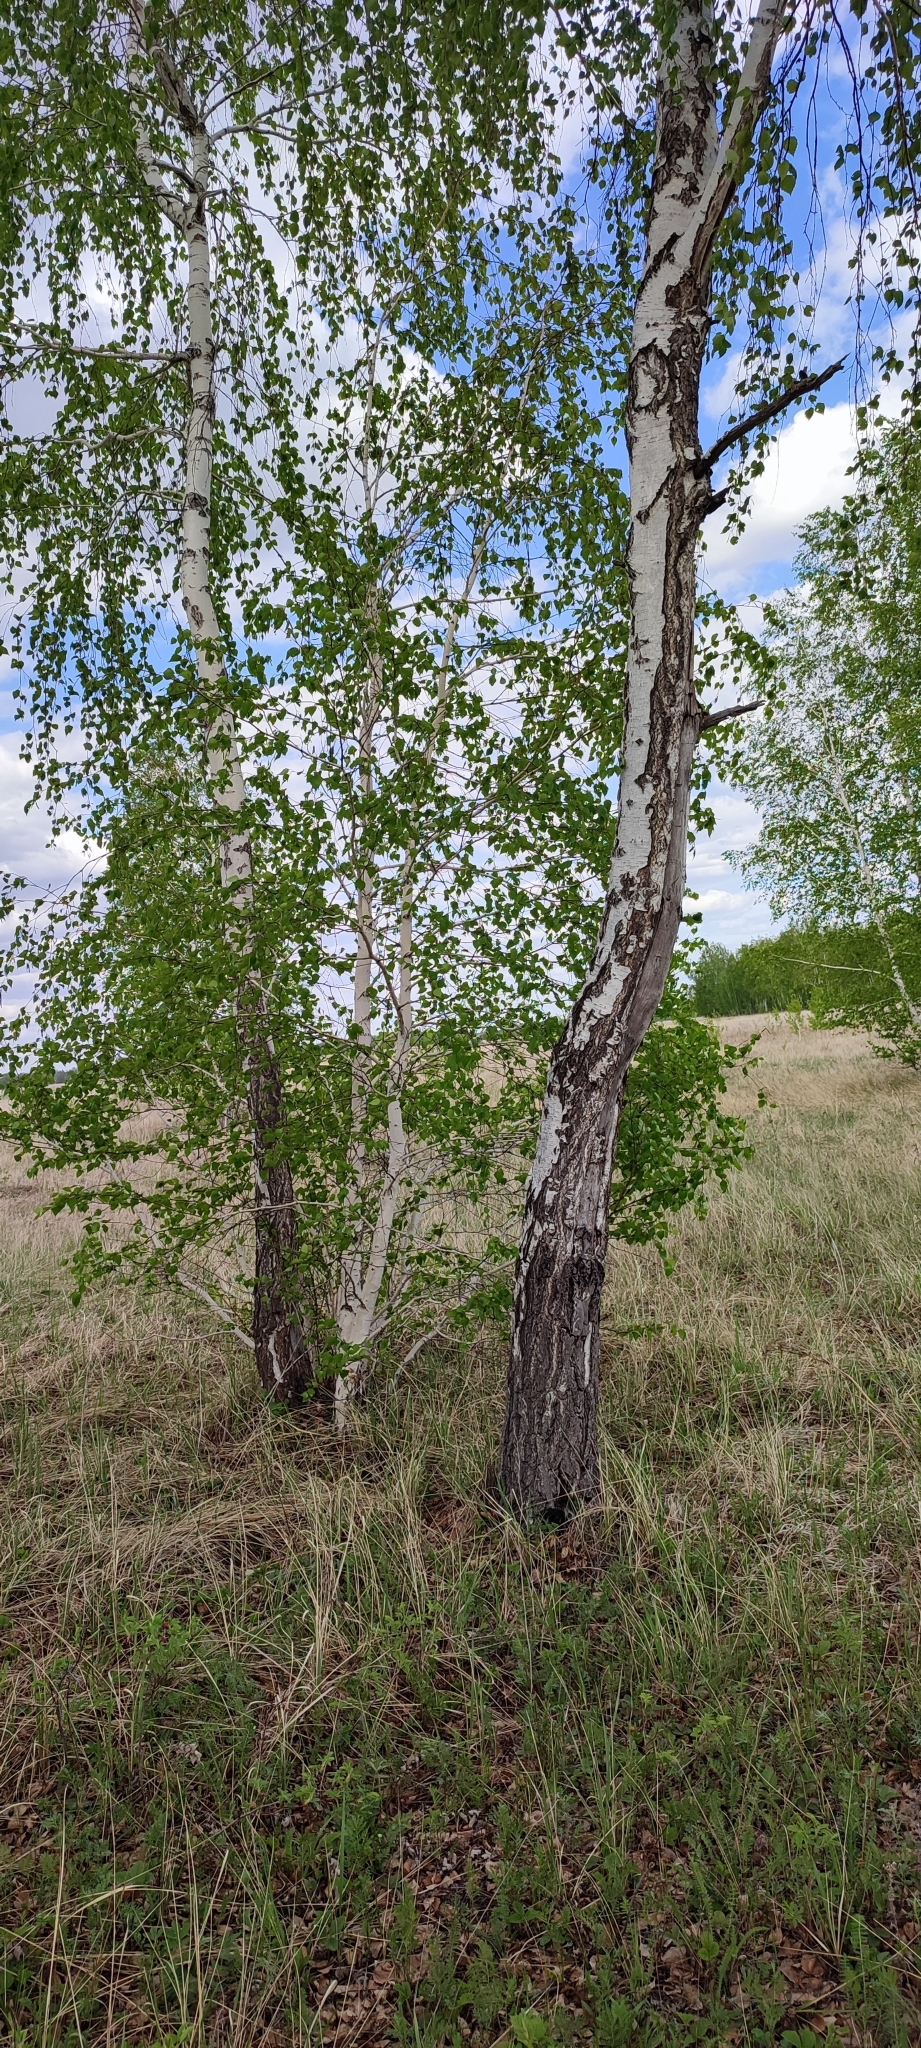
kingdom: Plantae
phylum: Tracheophyta
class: Magnoliopsida
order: Fagales
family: Betulaceae
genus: Betula
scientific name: Betula pendula
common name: Silver birch
